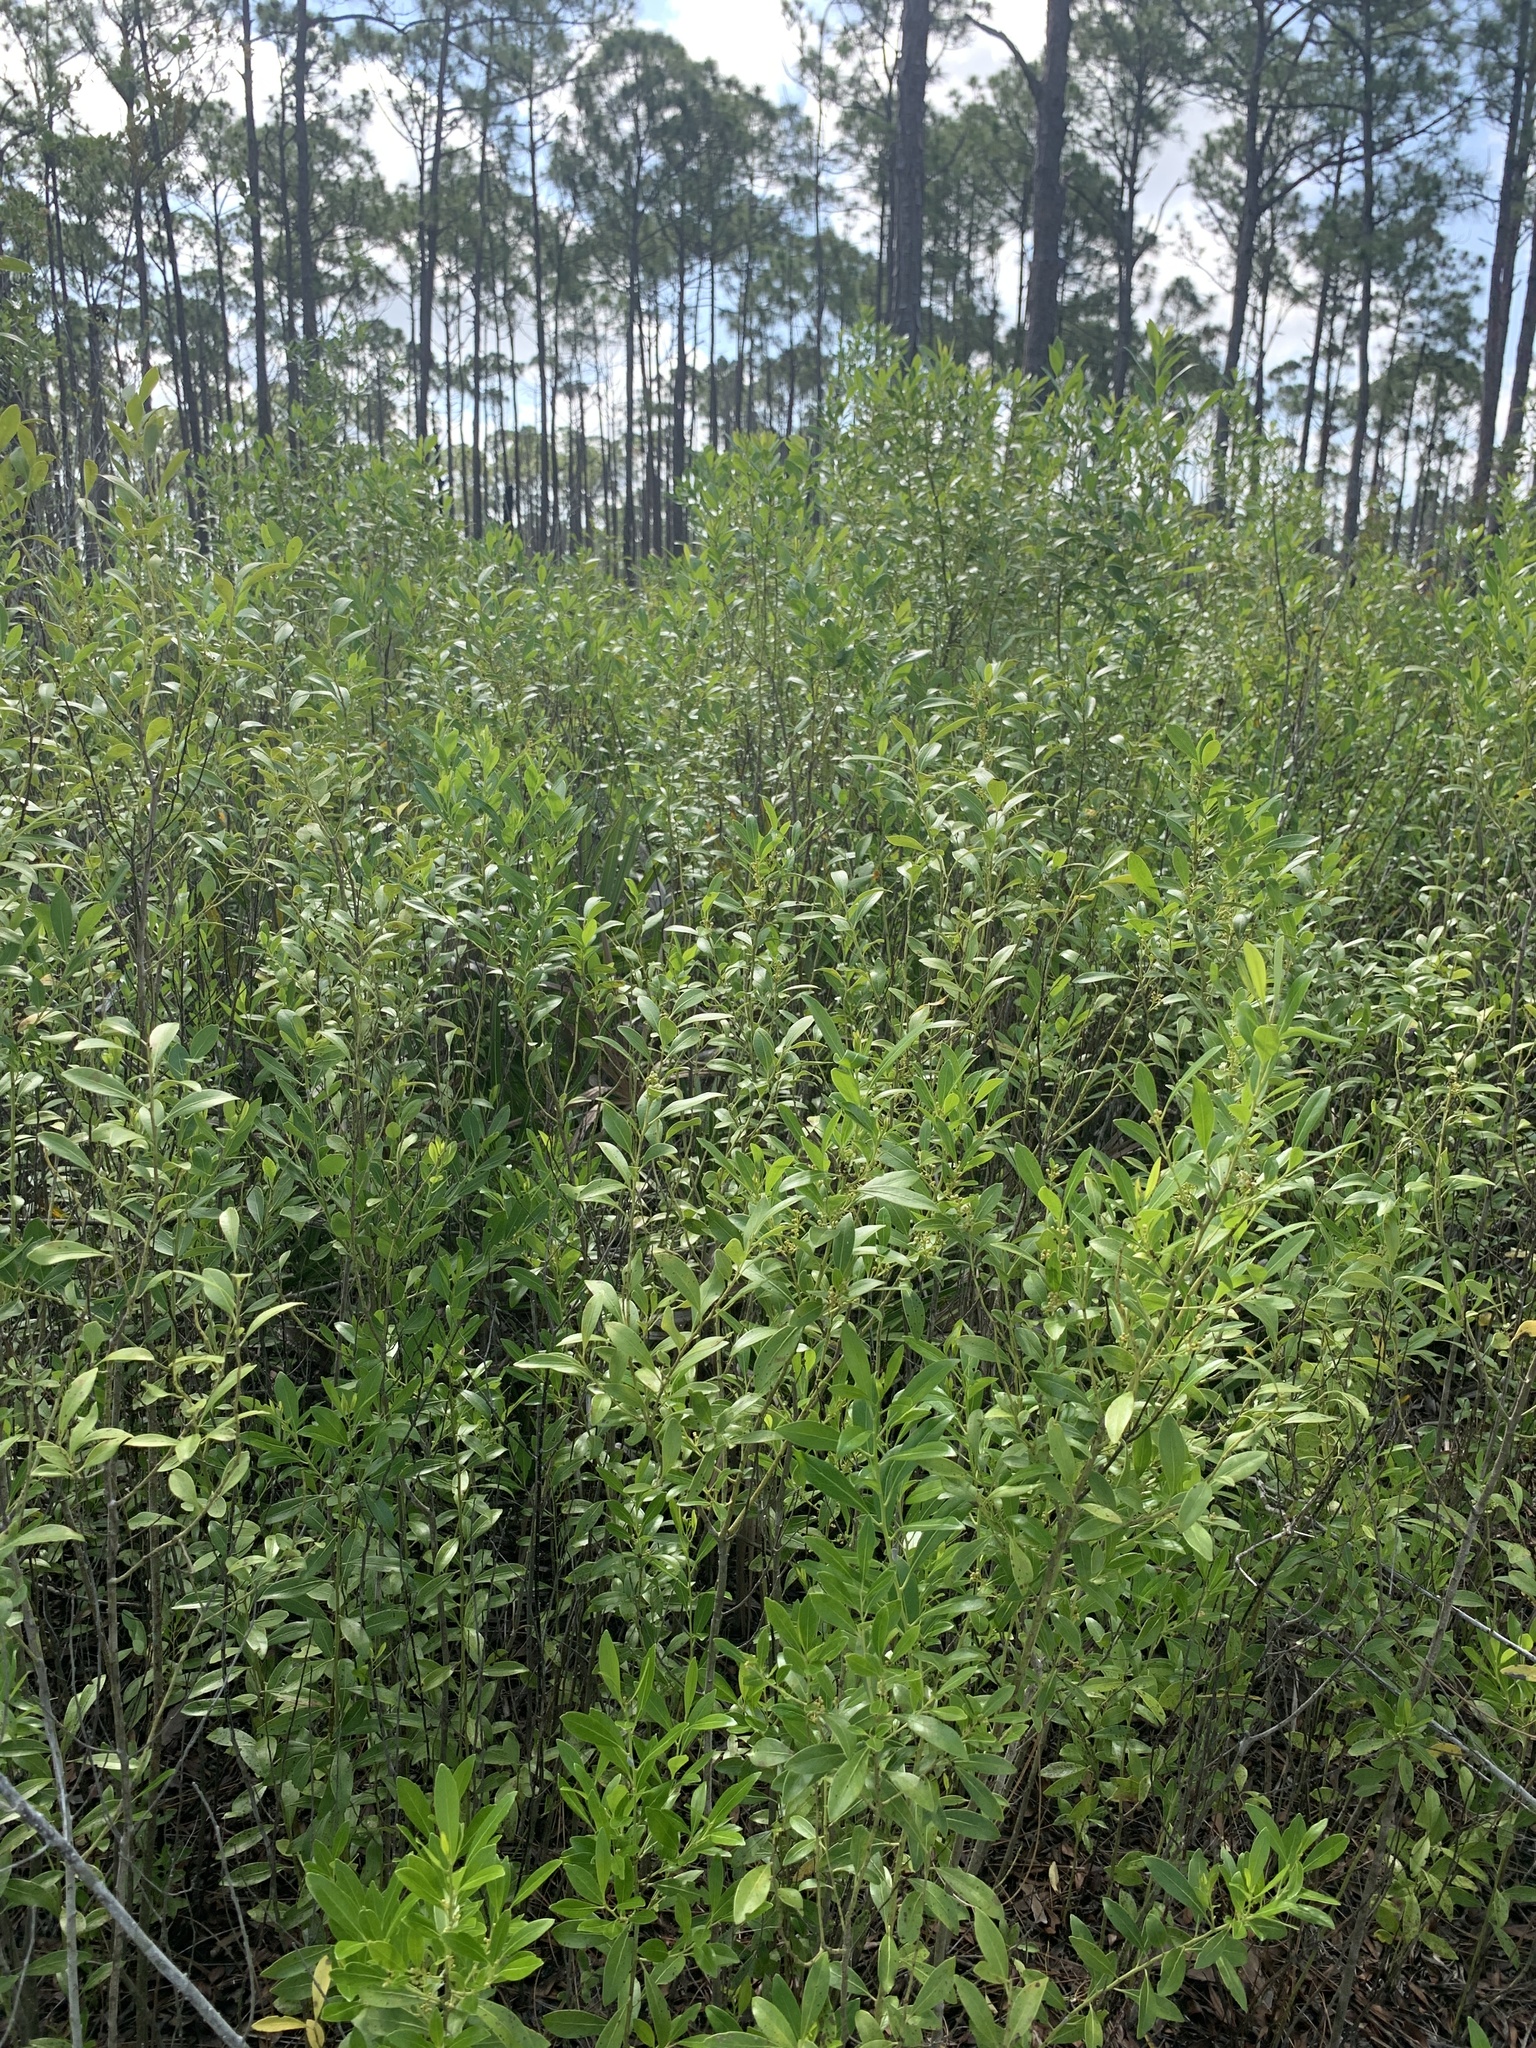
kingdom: Plantae
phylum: Tracheophyta
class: Magnoliopsida
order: Aquifoliales
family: Aquifoliaceae
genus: Ilex
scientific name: Ilex glabra
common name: Bitter gallberry
